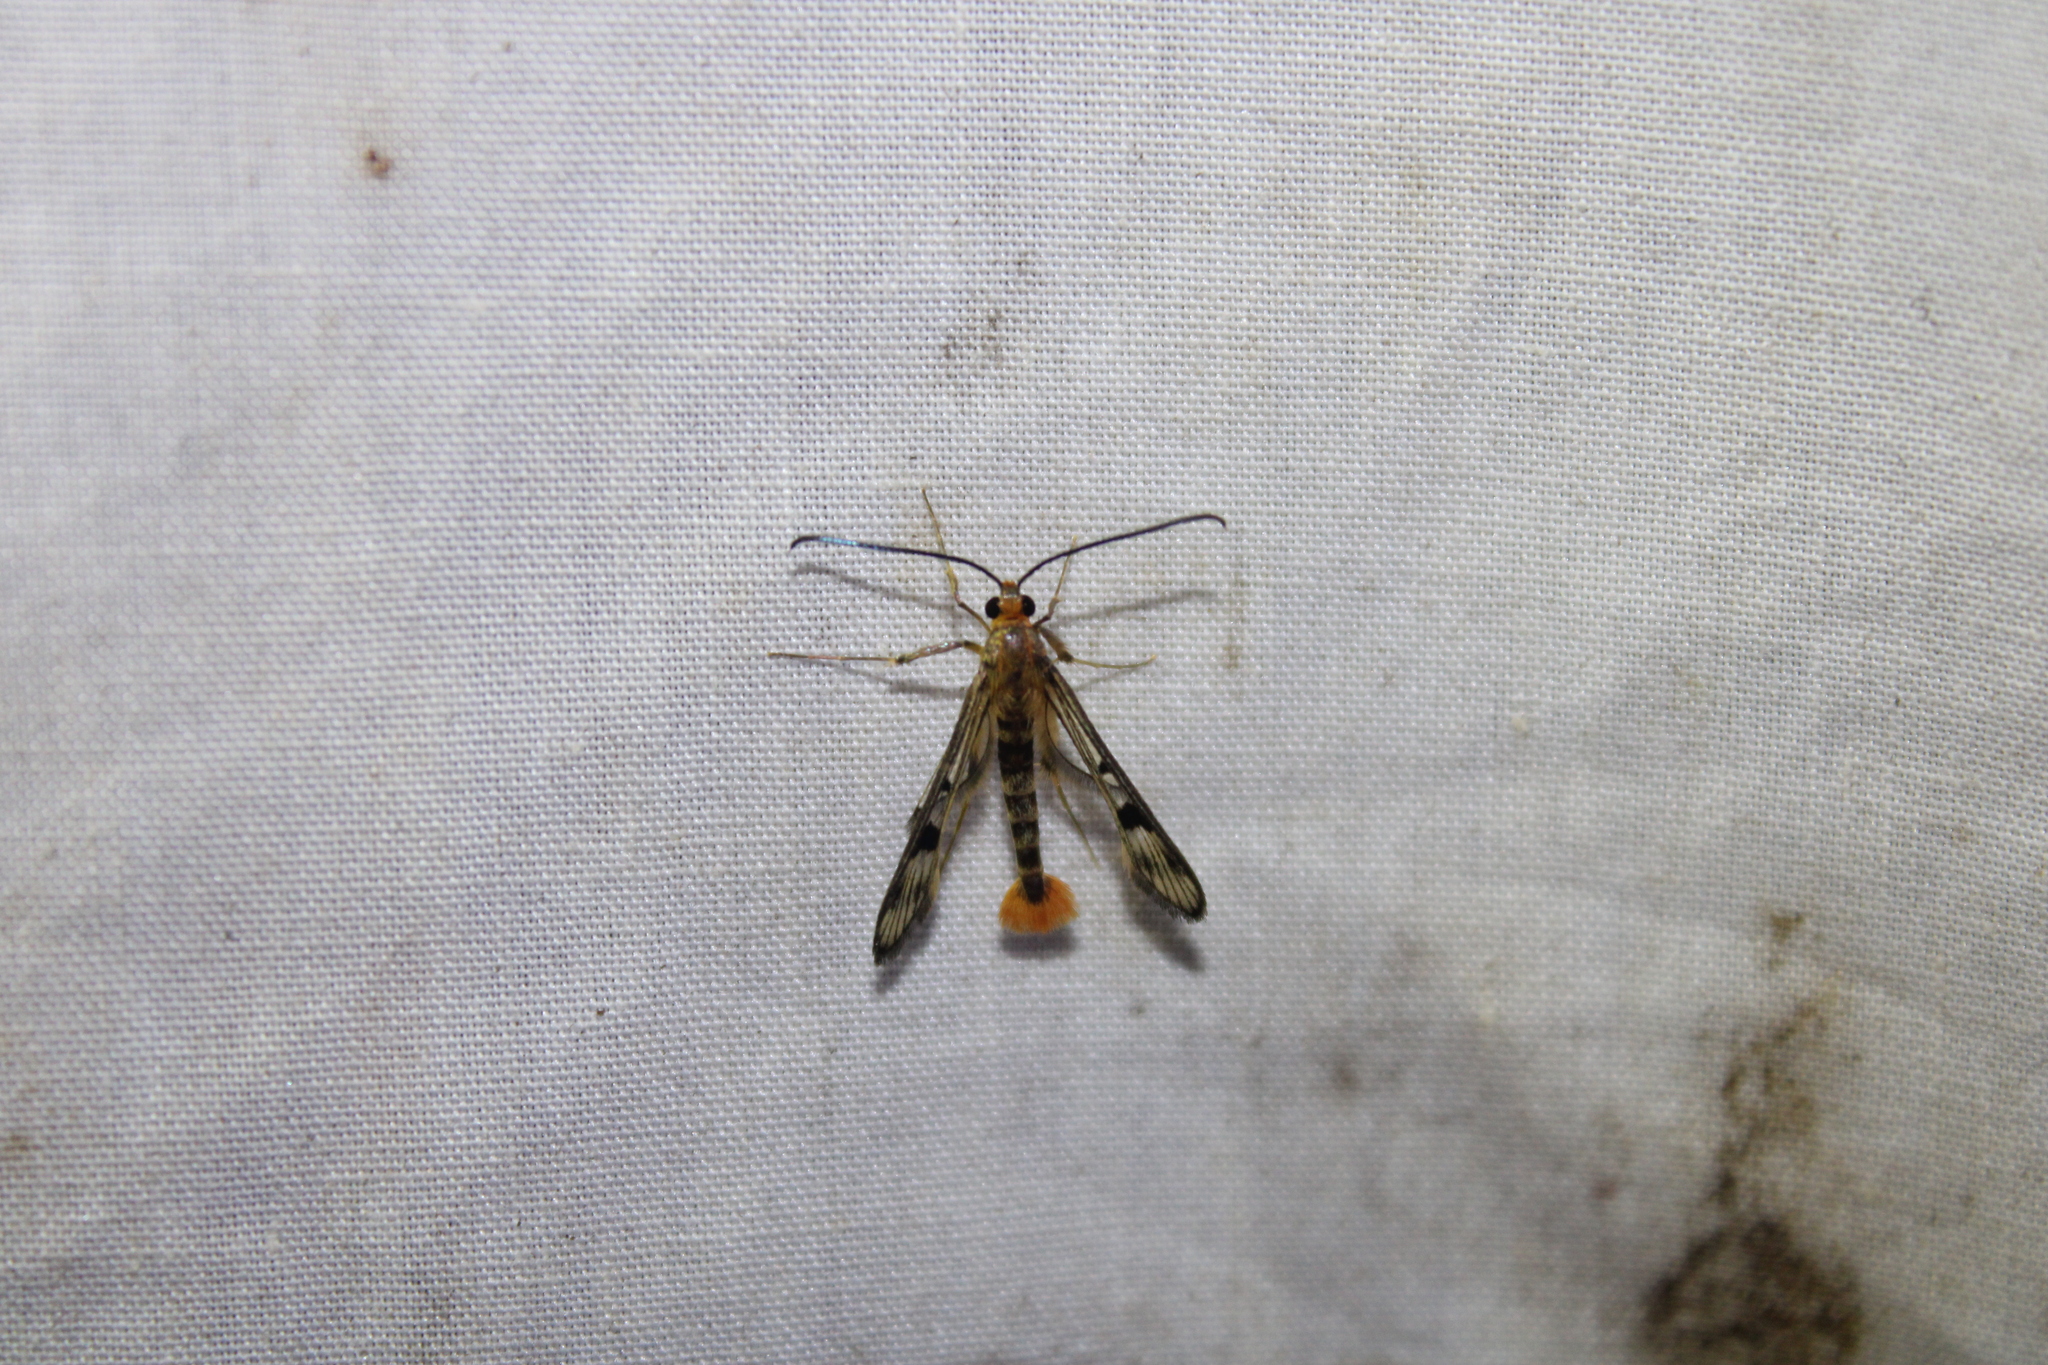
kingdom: Animalia
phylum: Arthropoda
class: Insecta
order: Lepidoptera
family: Sesiidae
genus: Synanthedon
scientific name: Synanthedon acerni
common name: Maple callus borer moth
